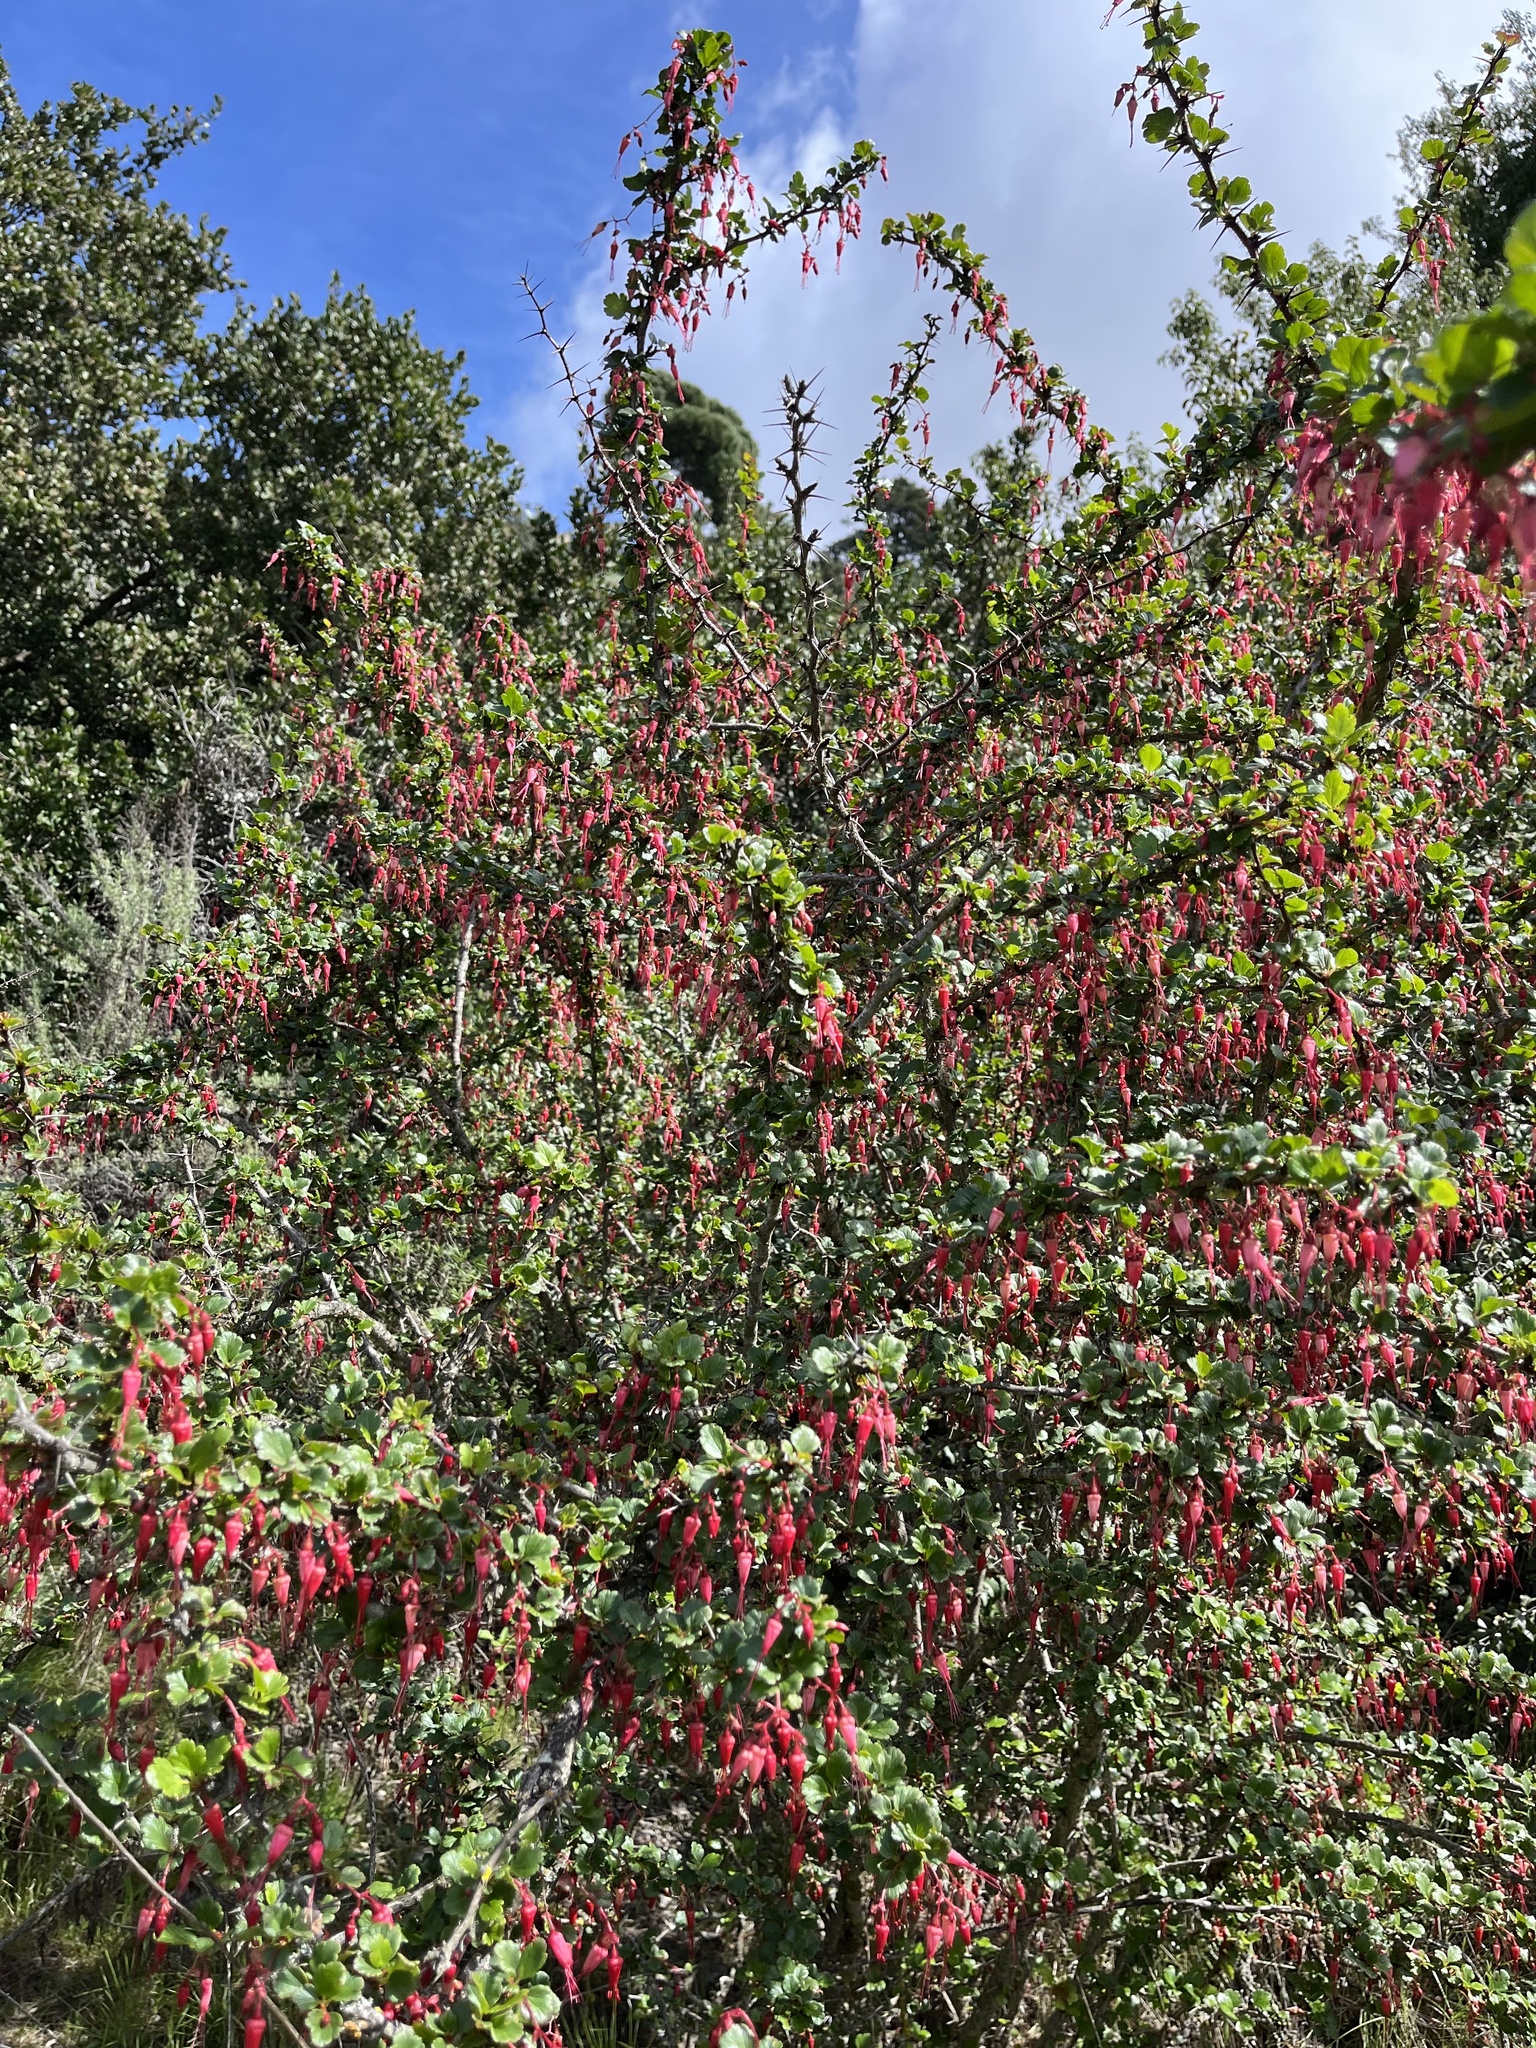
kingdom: Plantae
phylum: Tracheophyta
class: Magnoliopsida
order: Saxifragales
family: Grossulariaceae
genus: Ribes
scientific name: Ribes speciosum
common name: Fuchsia-flower gooseberry
